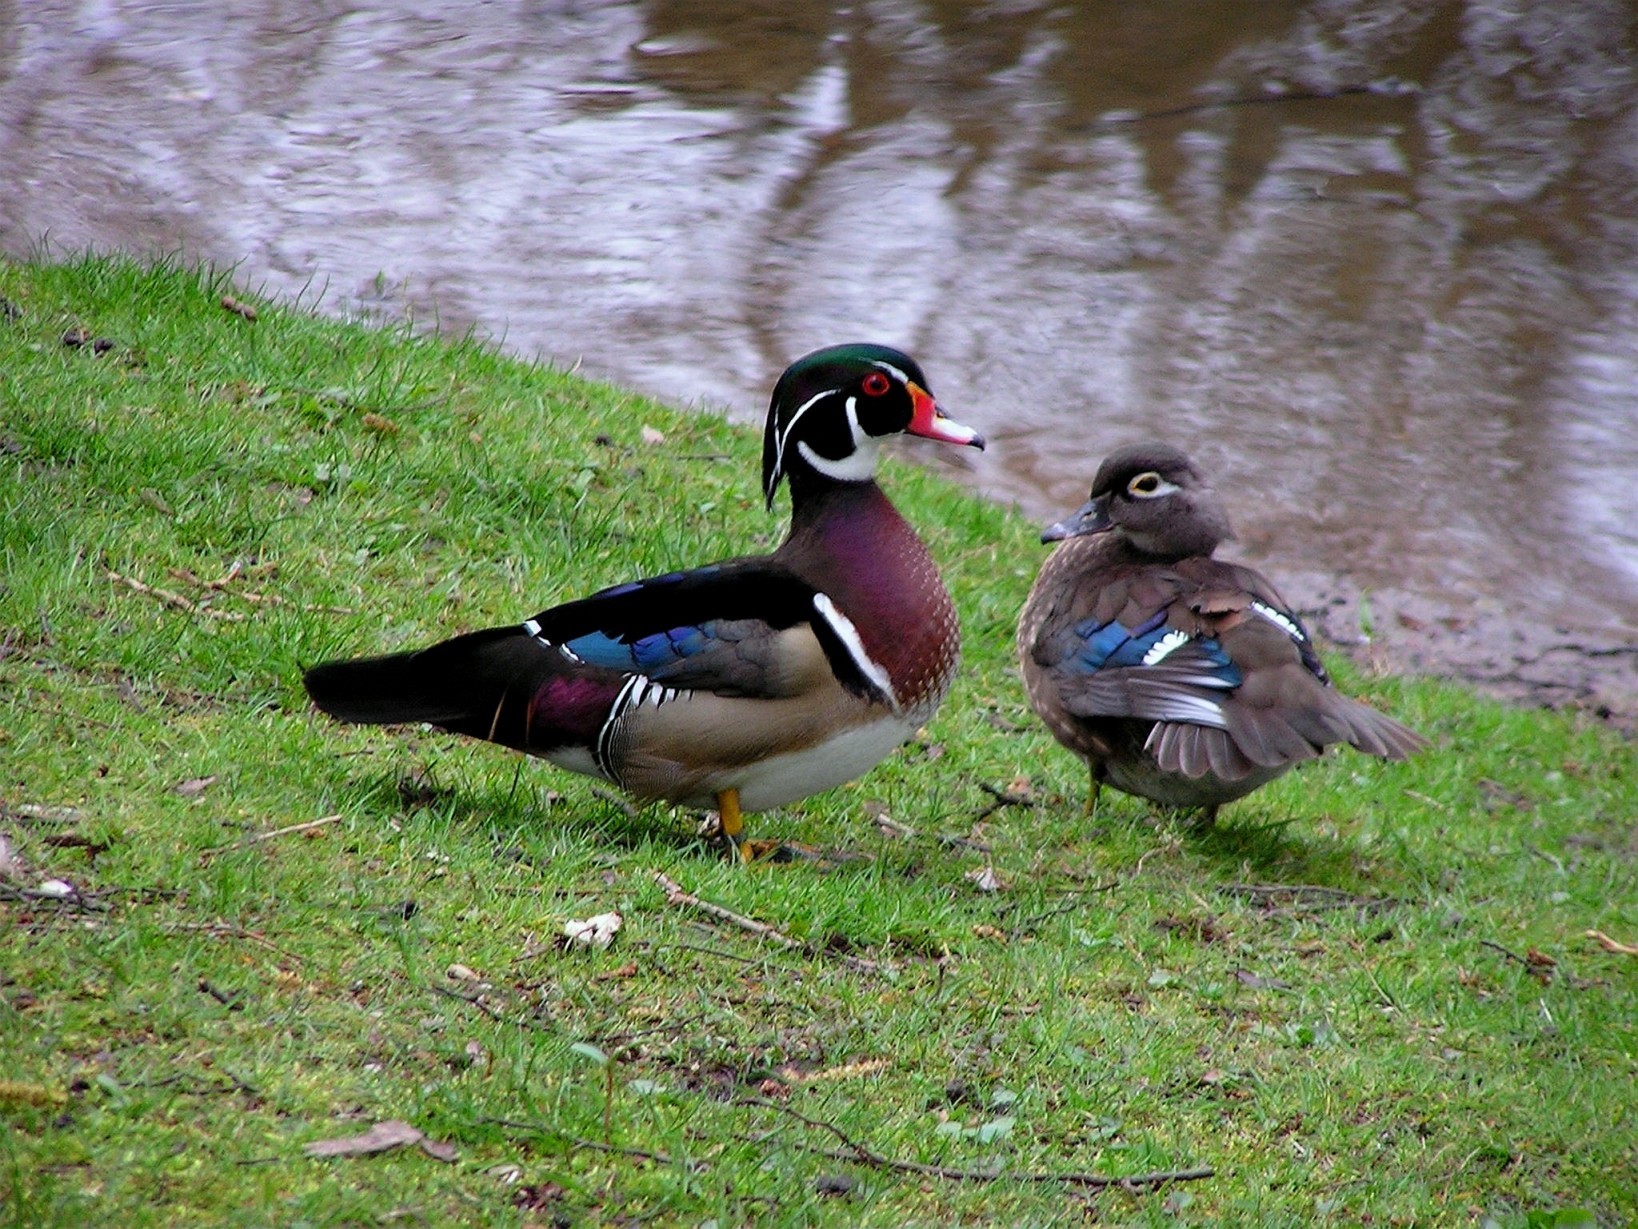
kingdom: Animalia
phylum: Chordata
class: Aves
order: Anseriformes
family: Anatidae
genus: Aix
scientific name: Aix sponsa
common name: Wood duck
